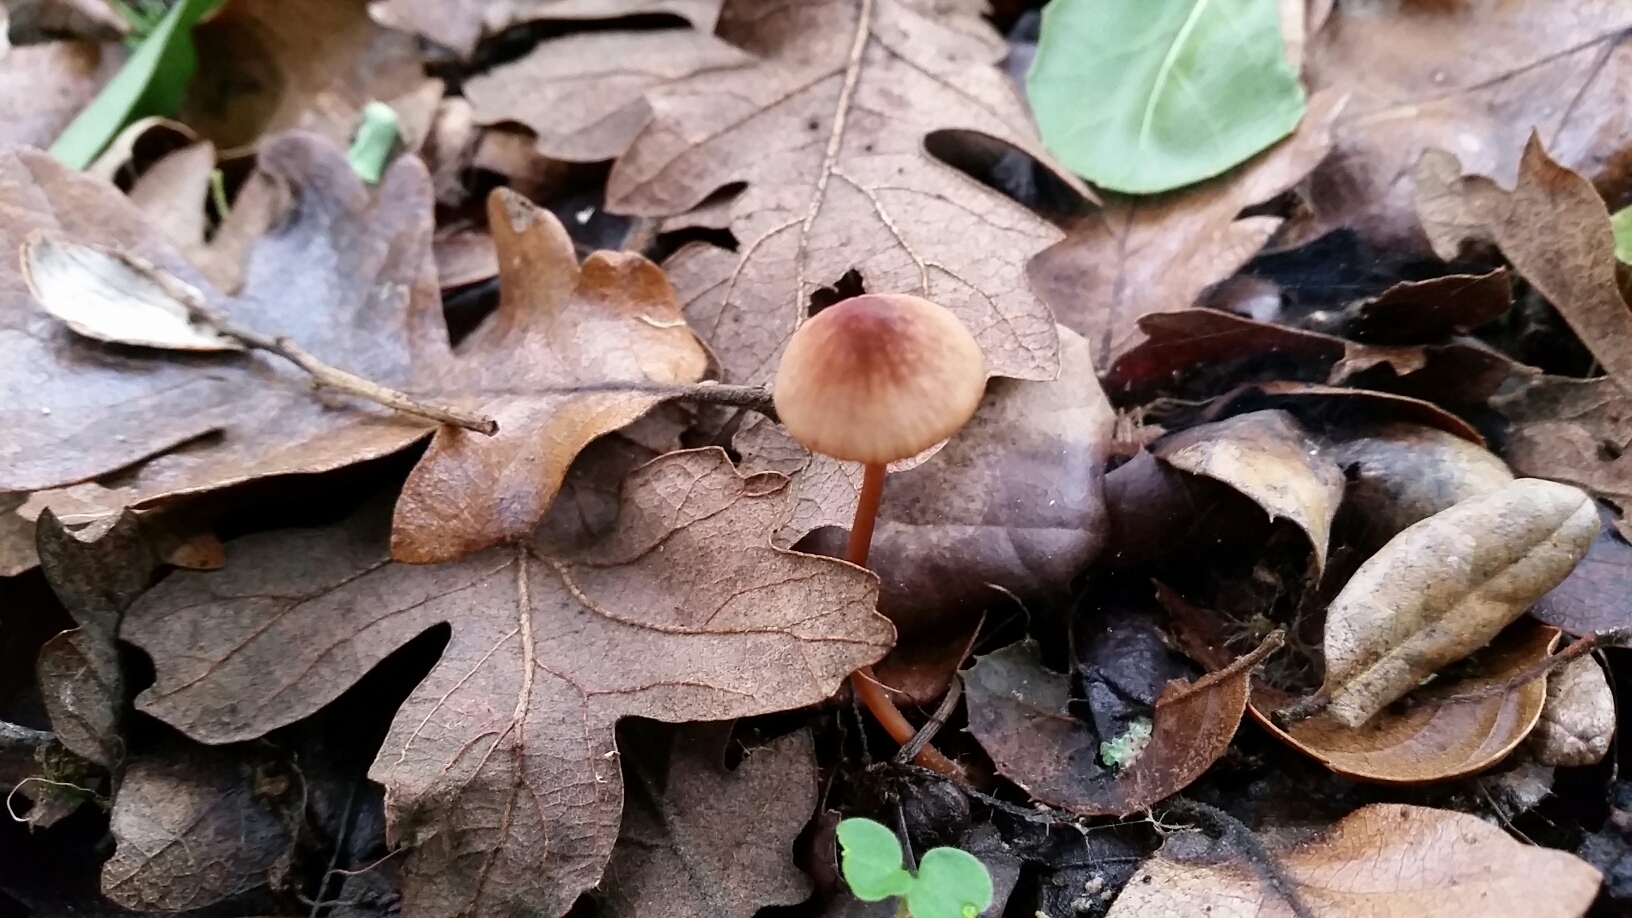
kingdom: Fungi
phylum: Basidiomycota
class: Agaricomycetes
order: Agaricales
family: Mycenaceae
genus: Mycena
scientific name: Mycena
